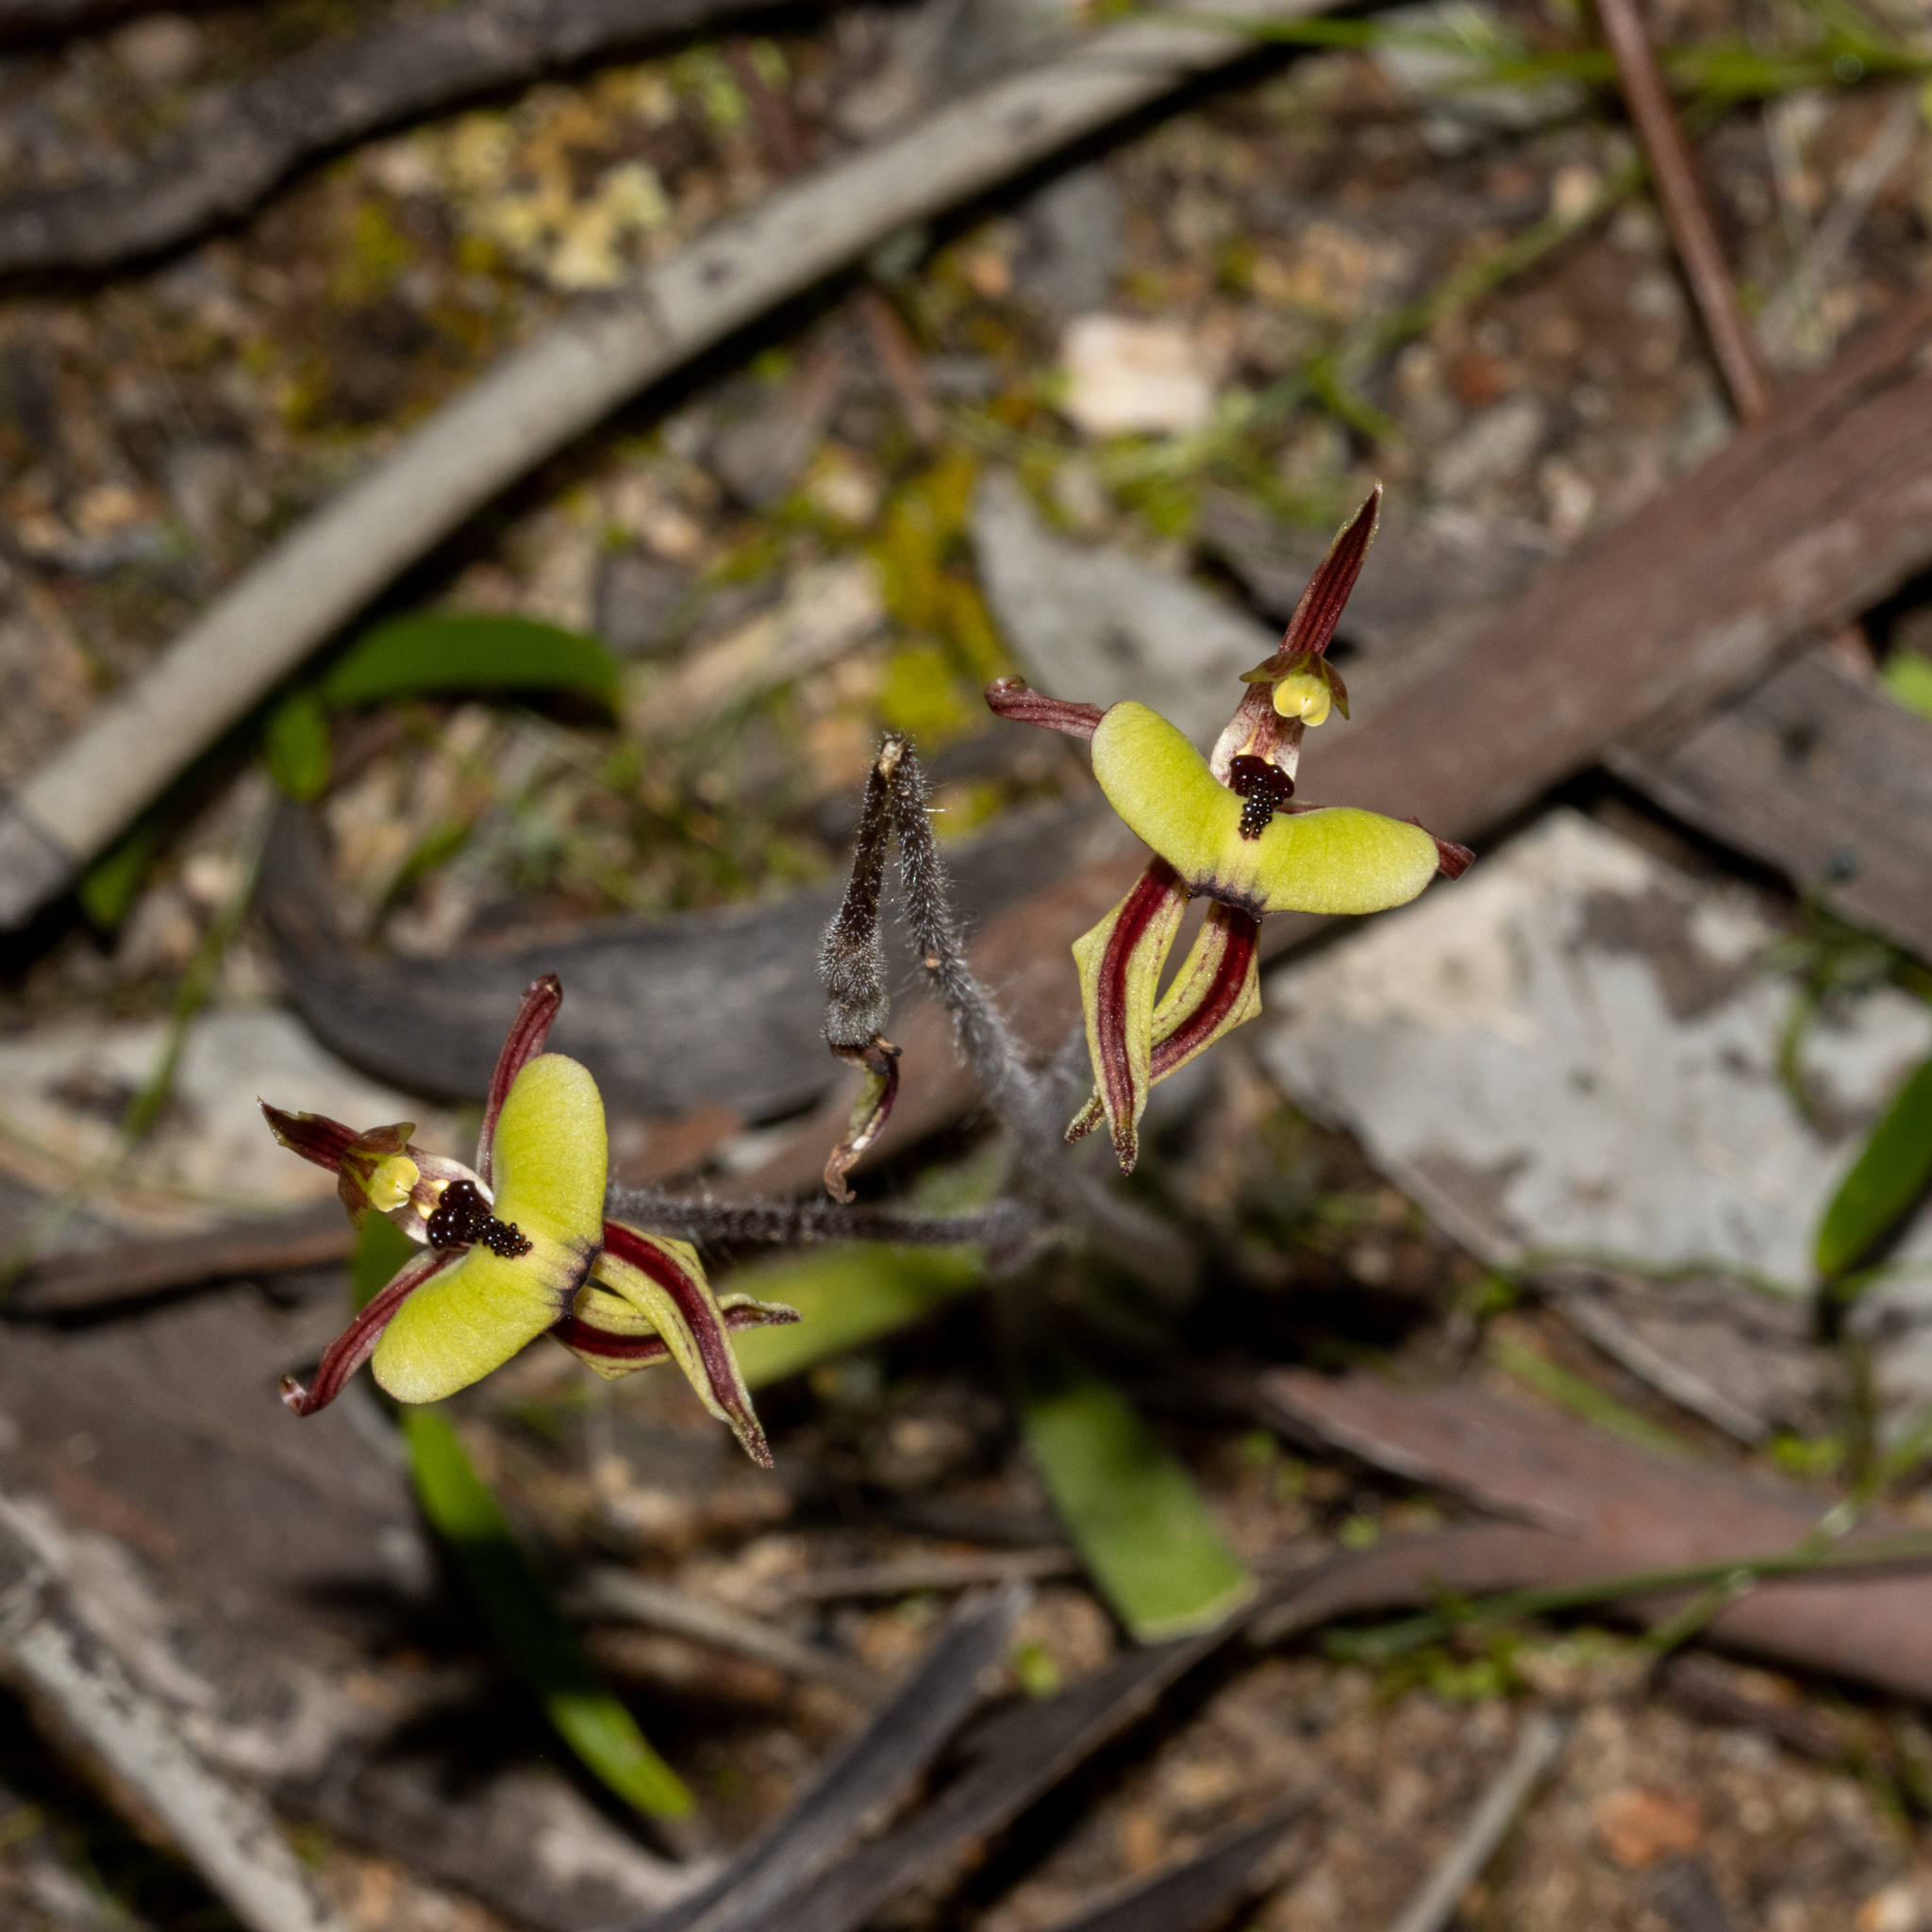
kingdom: Plantae
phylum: Tracheophyta
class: Liliopsida
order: Asparagales
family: Orchidaceae
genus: Caladenia
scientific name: Caladenia roei
